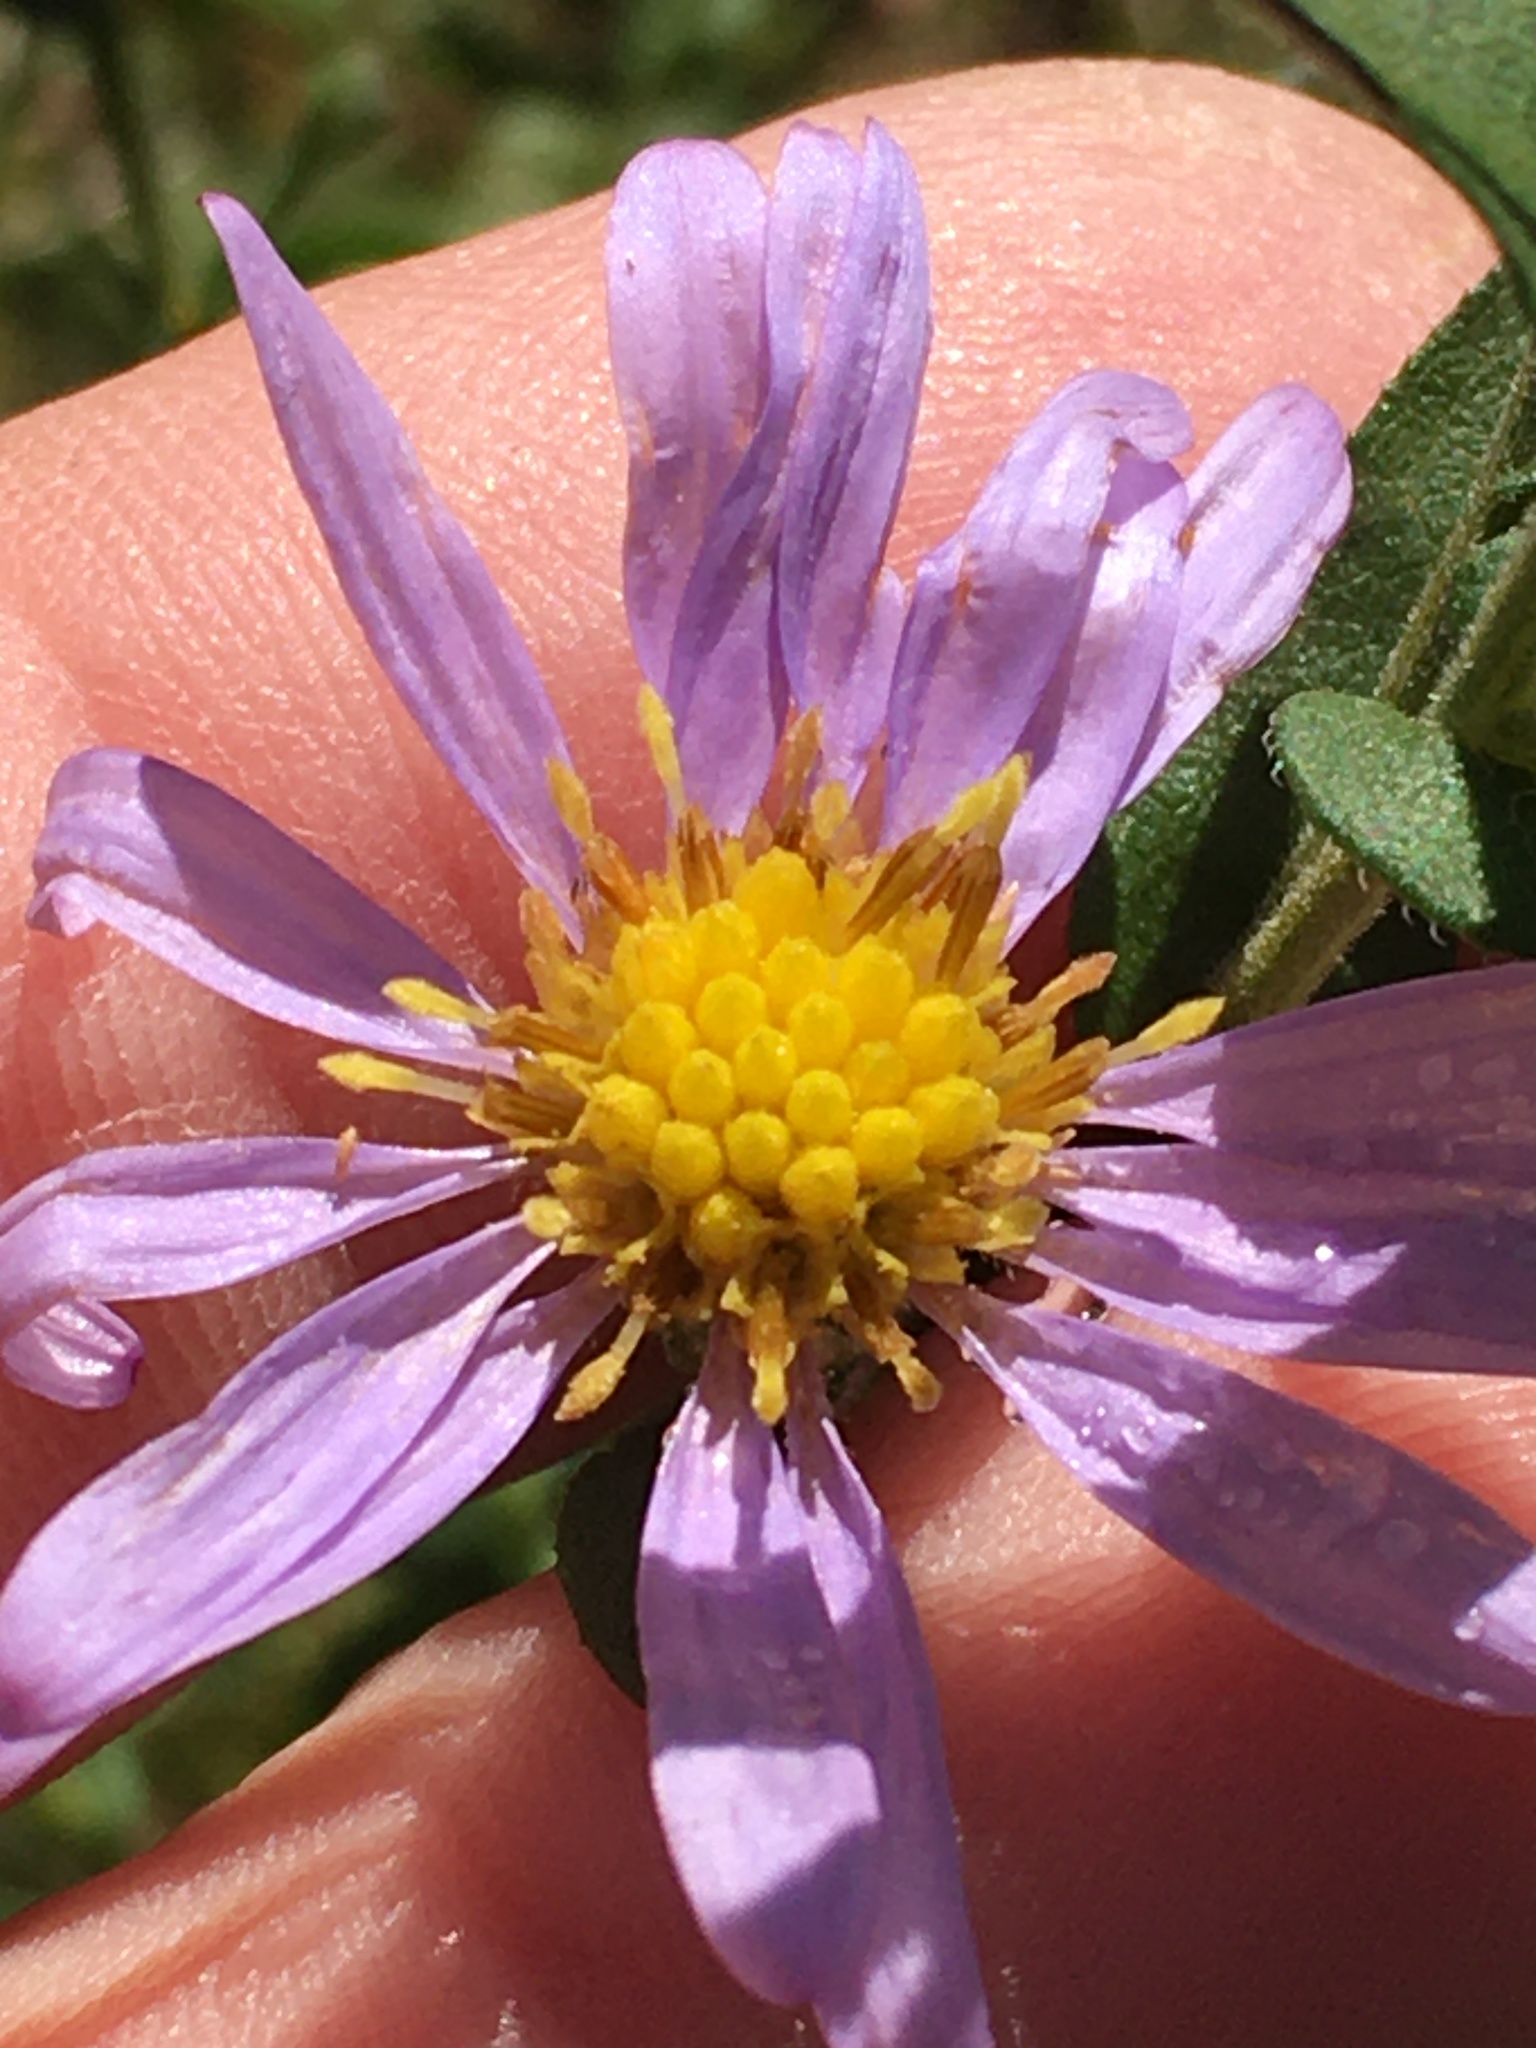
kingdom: Plantae
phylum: Tracheophyta
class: Magnoliopsida
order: Asterales
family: Asteraceae
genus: Symphyotrichum
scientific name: Symphyotrichum patens
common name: Late purple aster
